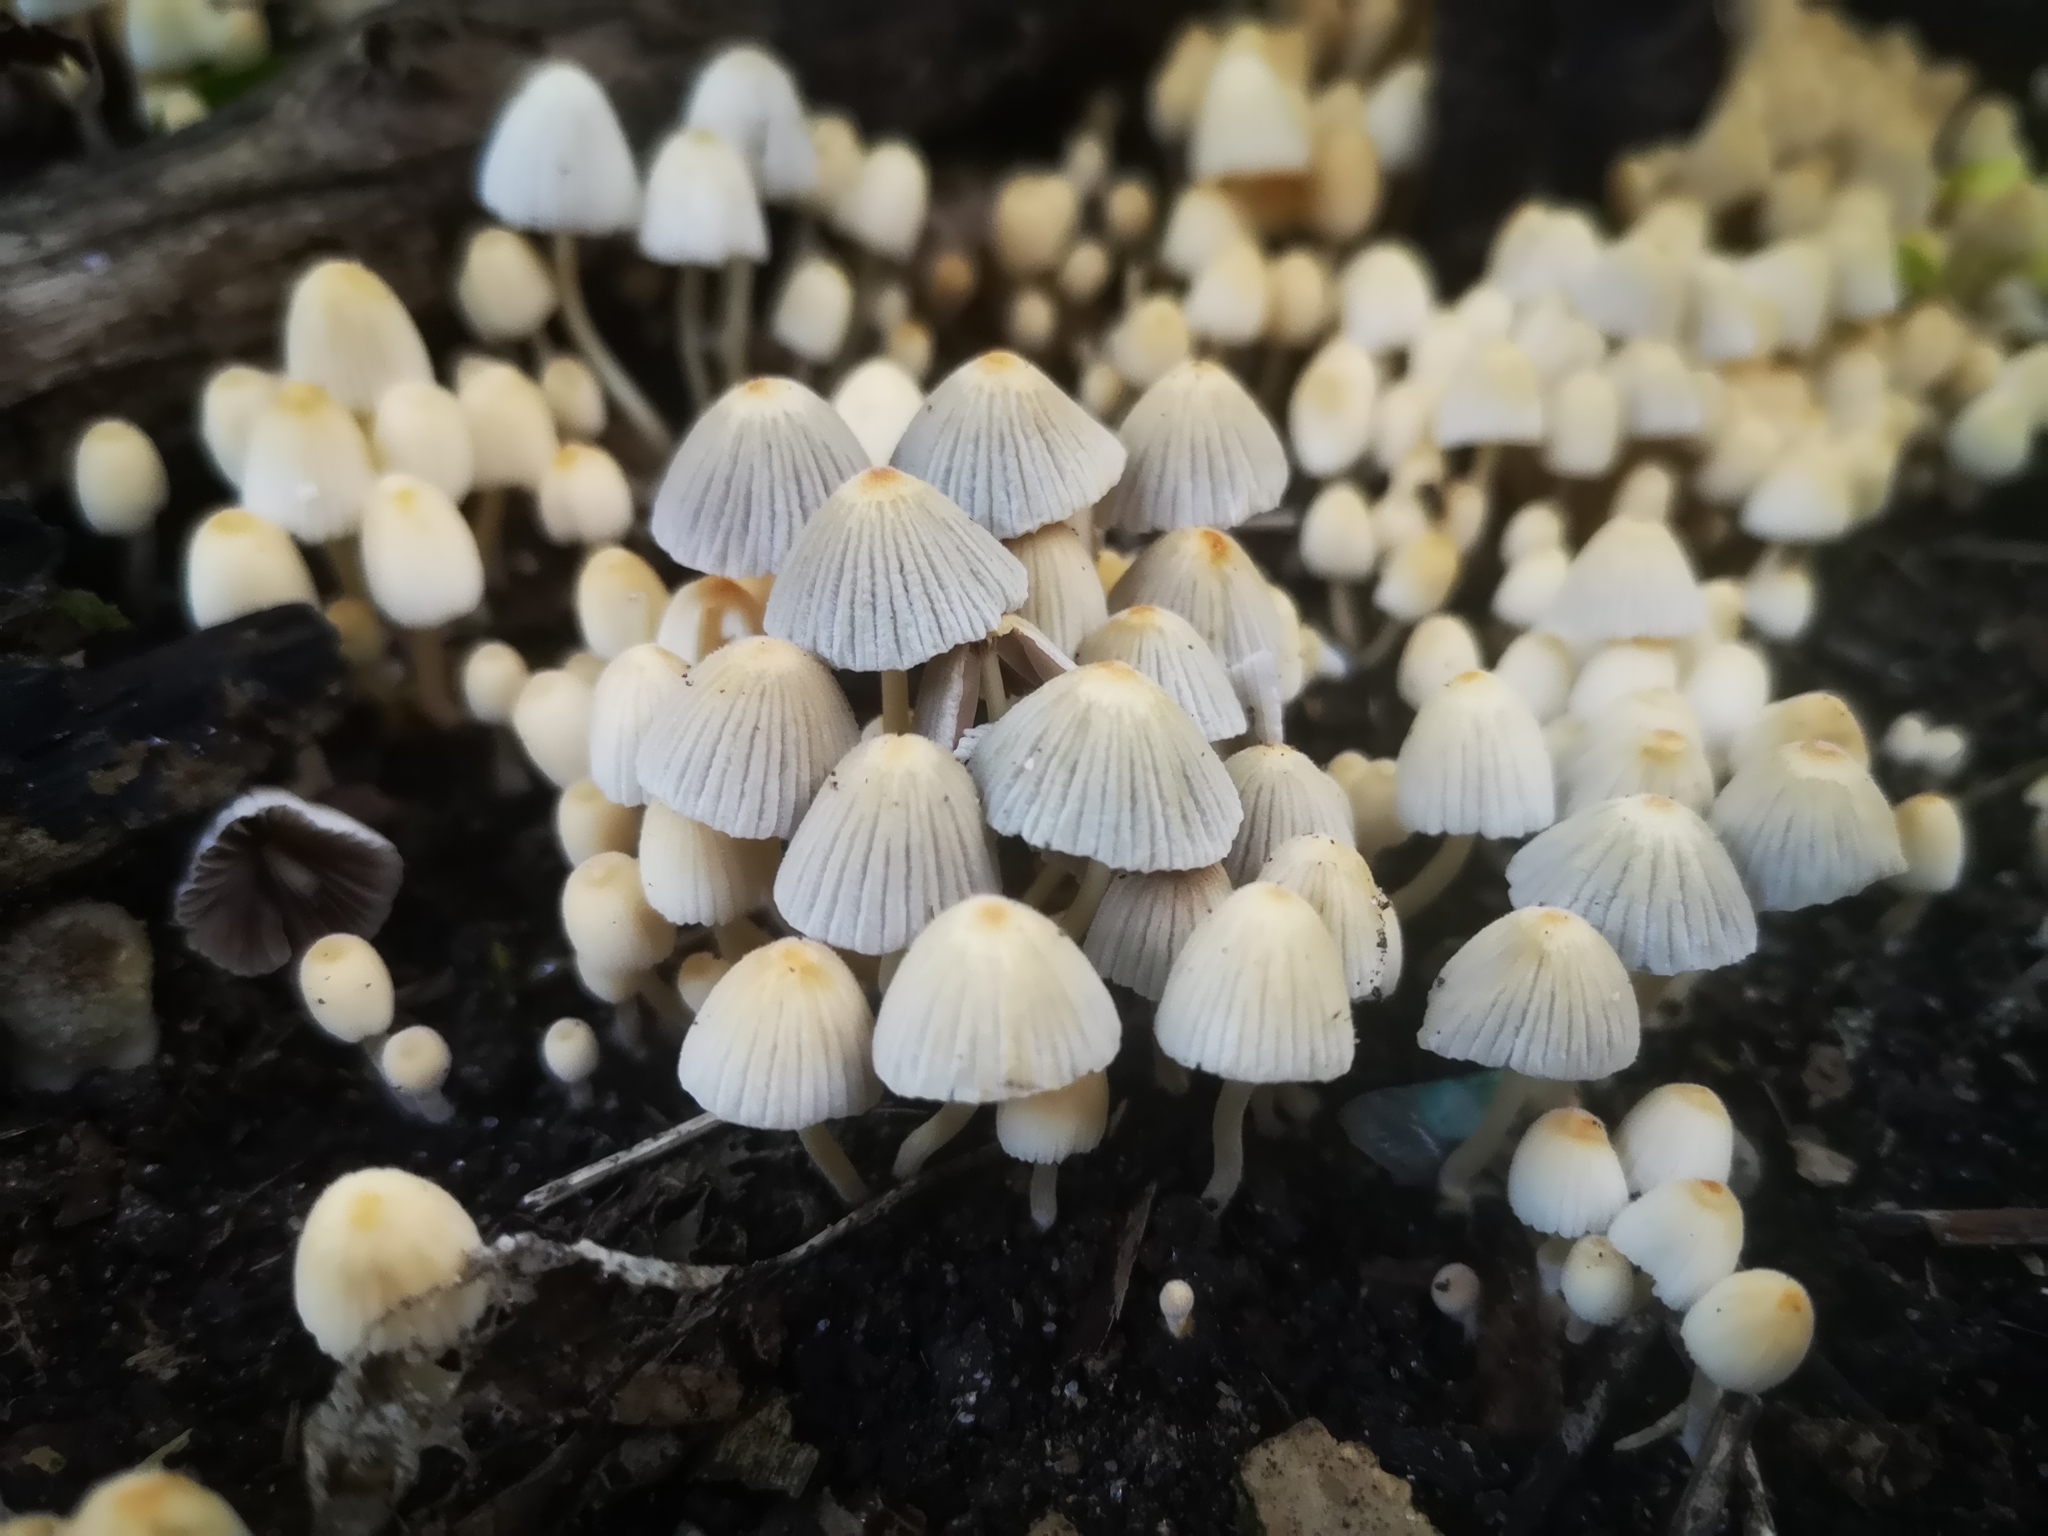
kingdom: Fungi
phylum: Basidiomycota
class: Agaricomycetes
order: Agaricales
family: Psathyrellaceae
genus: Coprinellus
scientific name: Coprinellus disseminatus
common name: Fairies' bonnets
